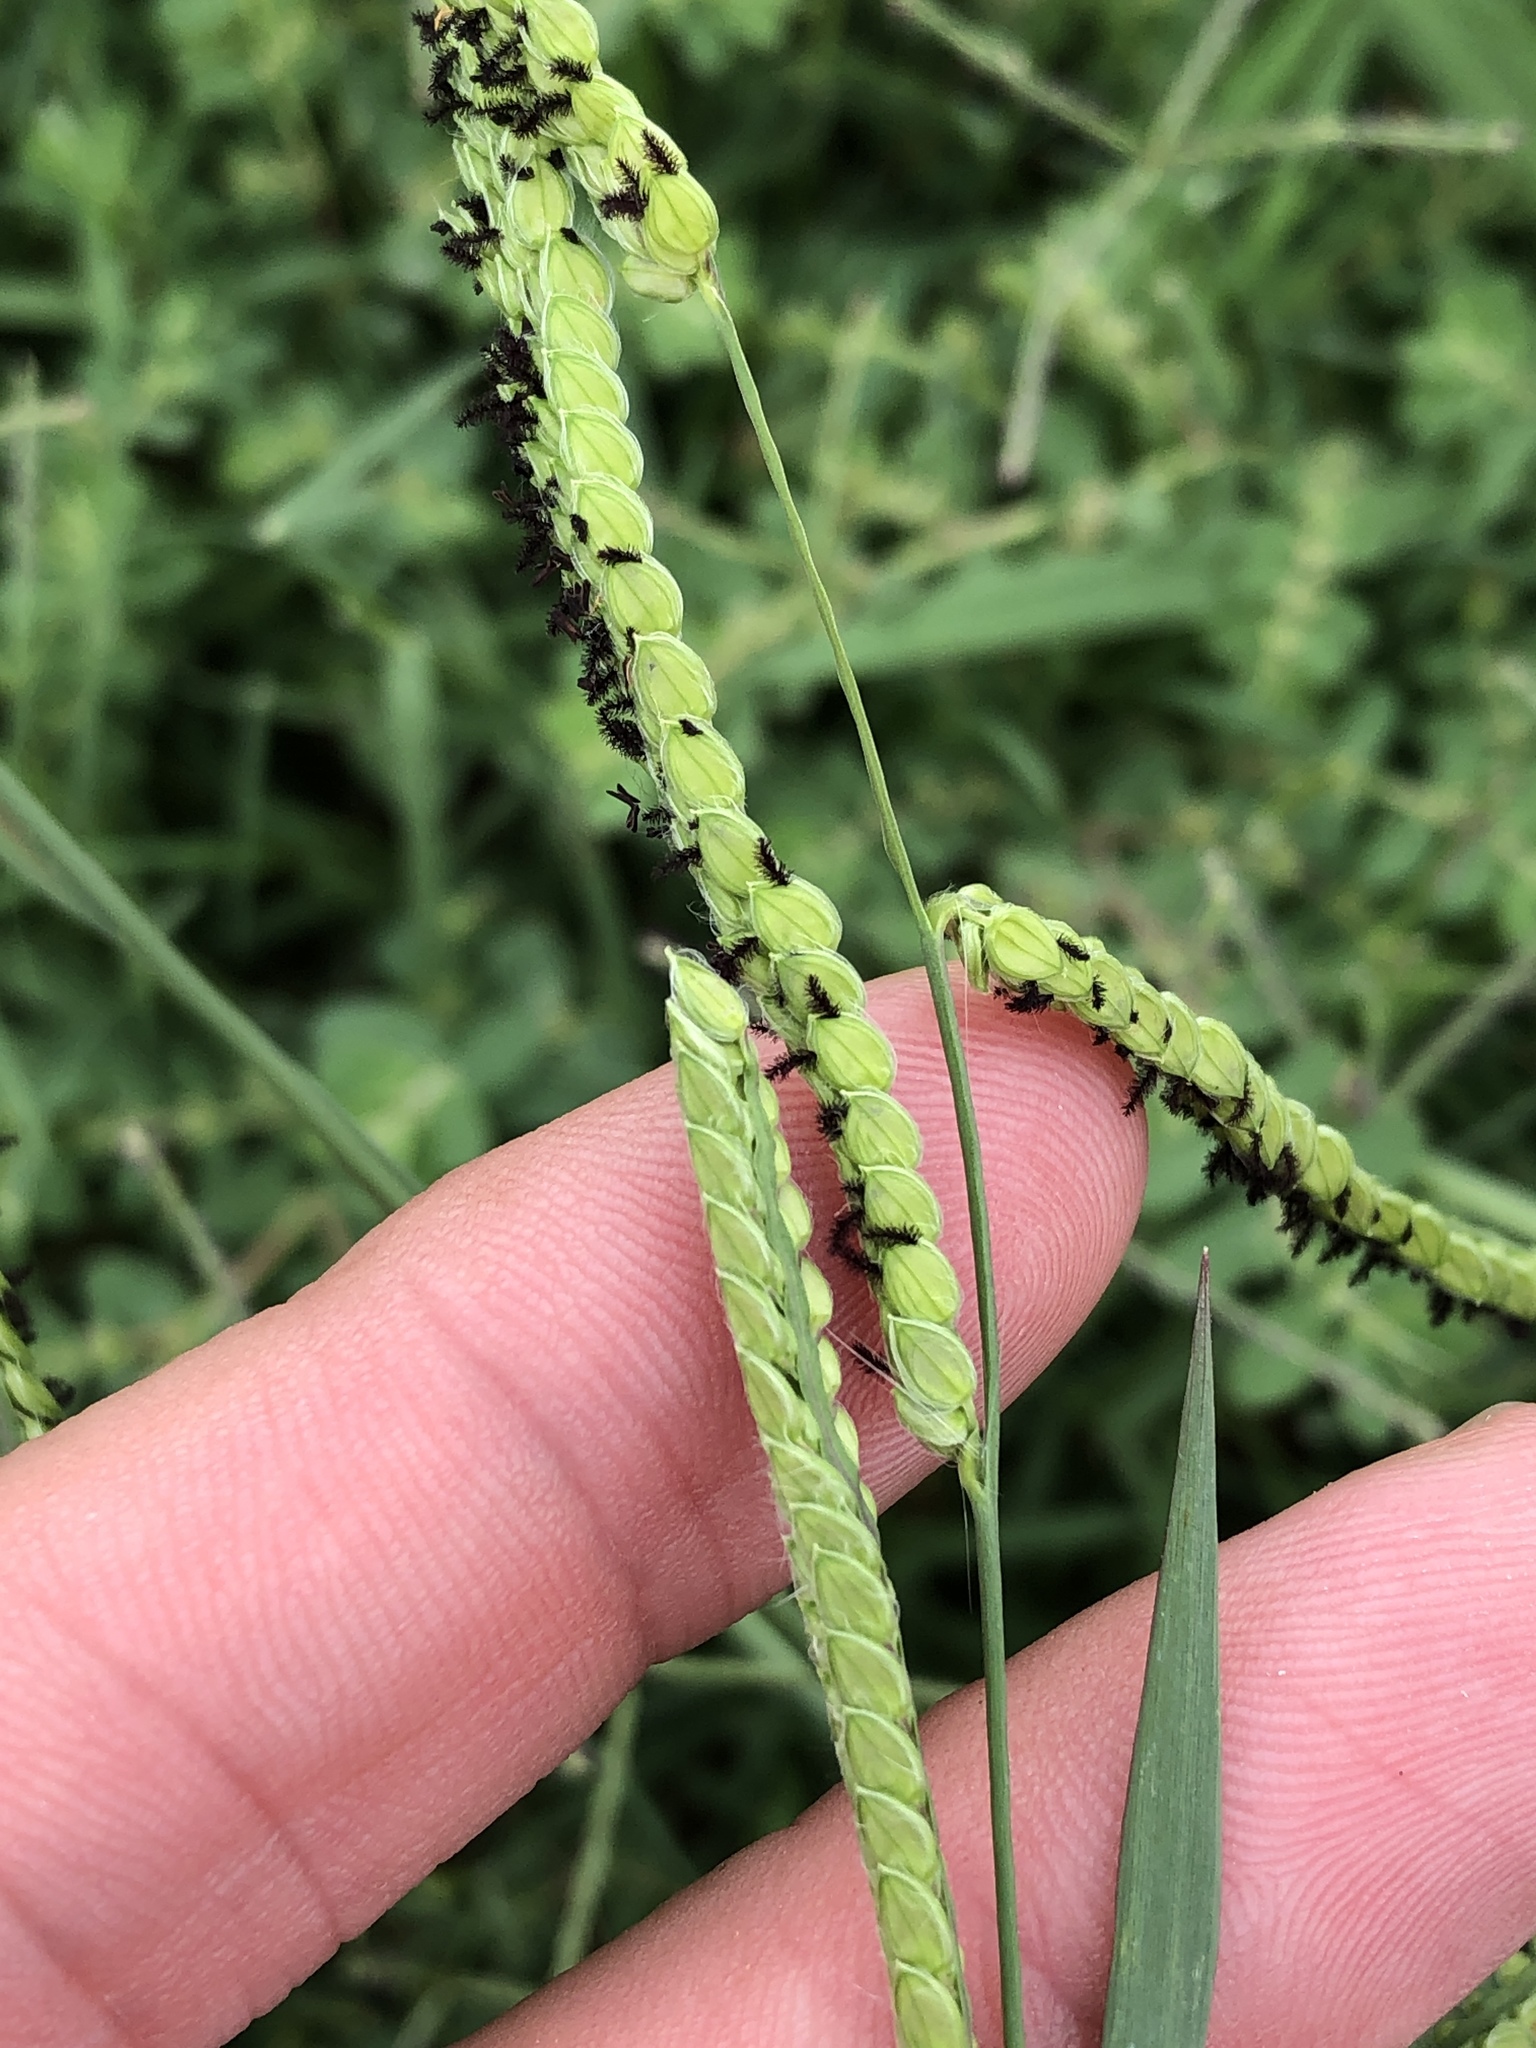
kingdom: Plantae
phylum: Tracheophyta
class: Liliopsida
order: Poales
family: Poaceae
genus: Paspalum
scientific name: Paspalum dilatatum
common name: Dallisgrass
